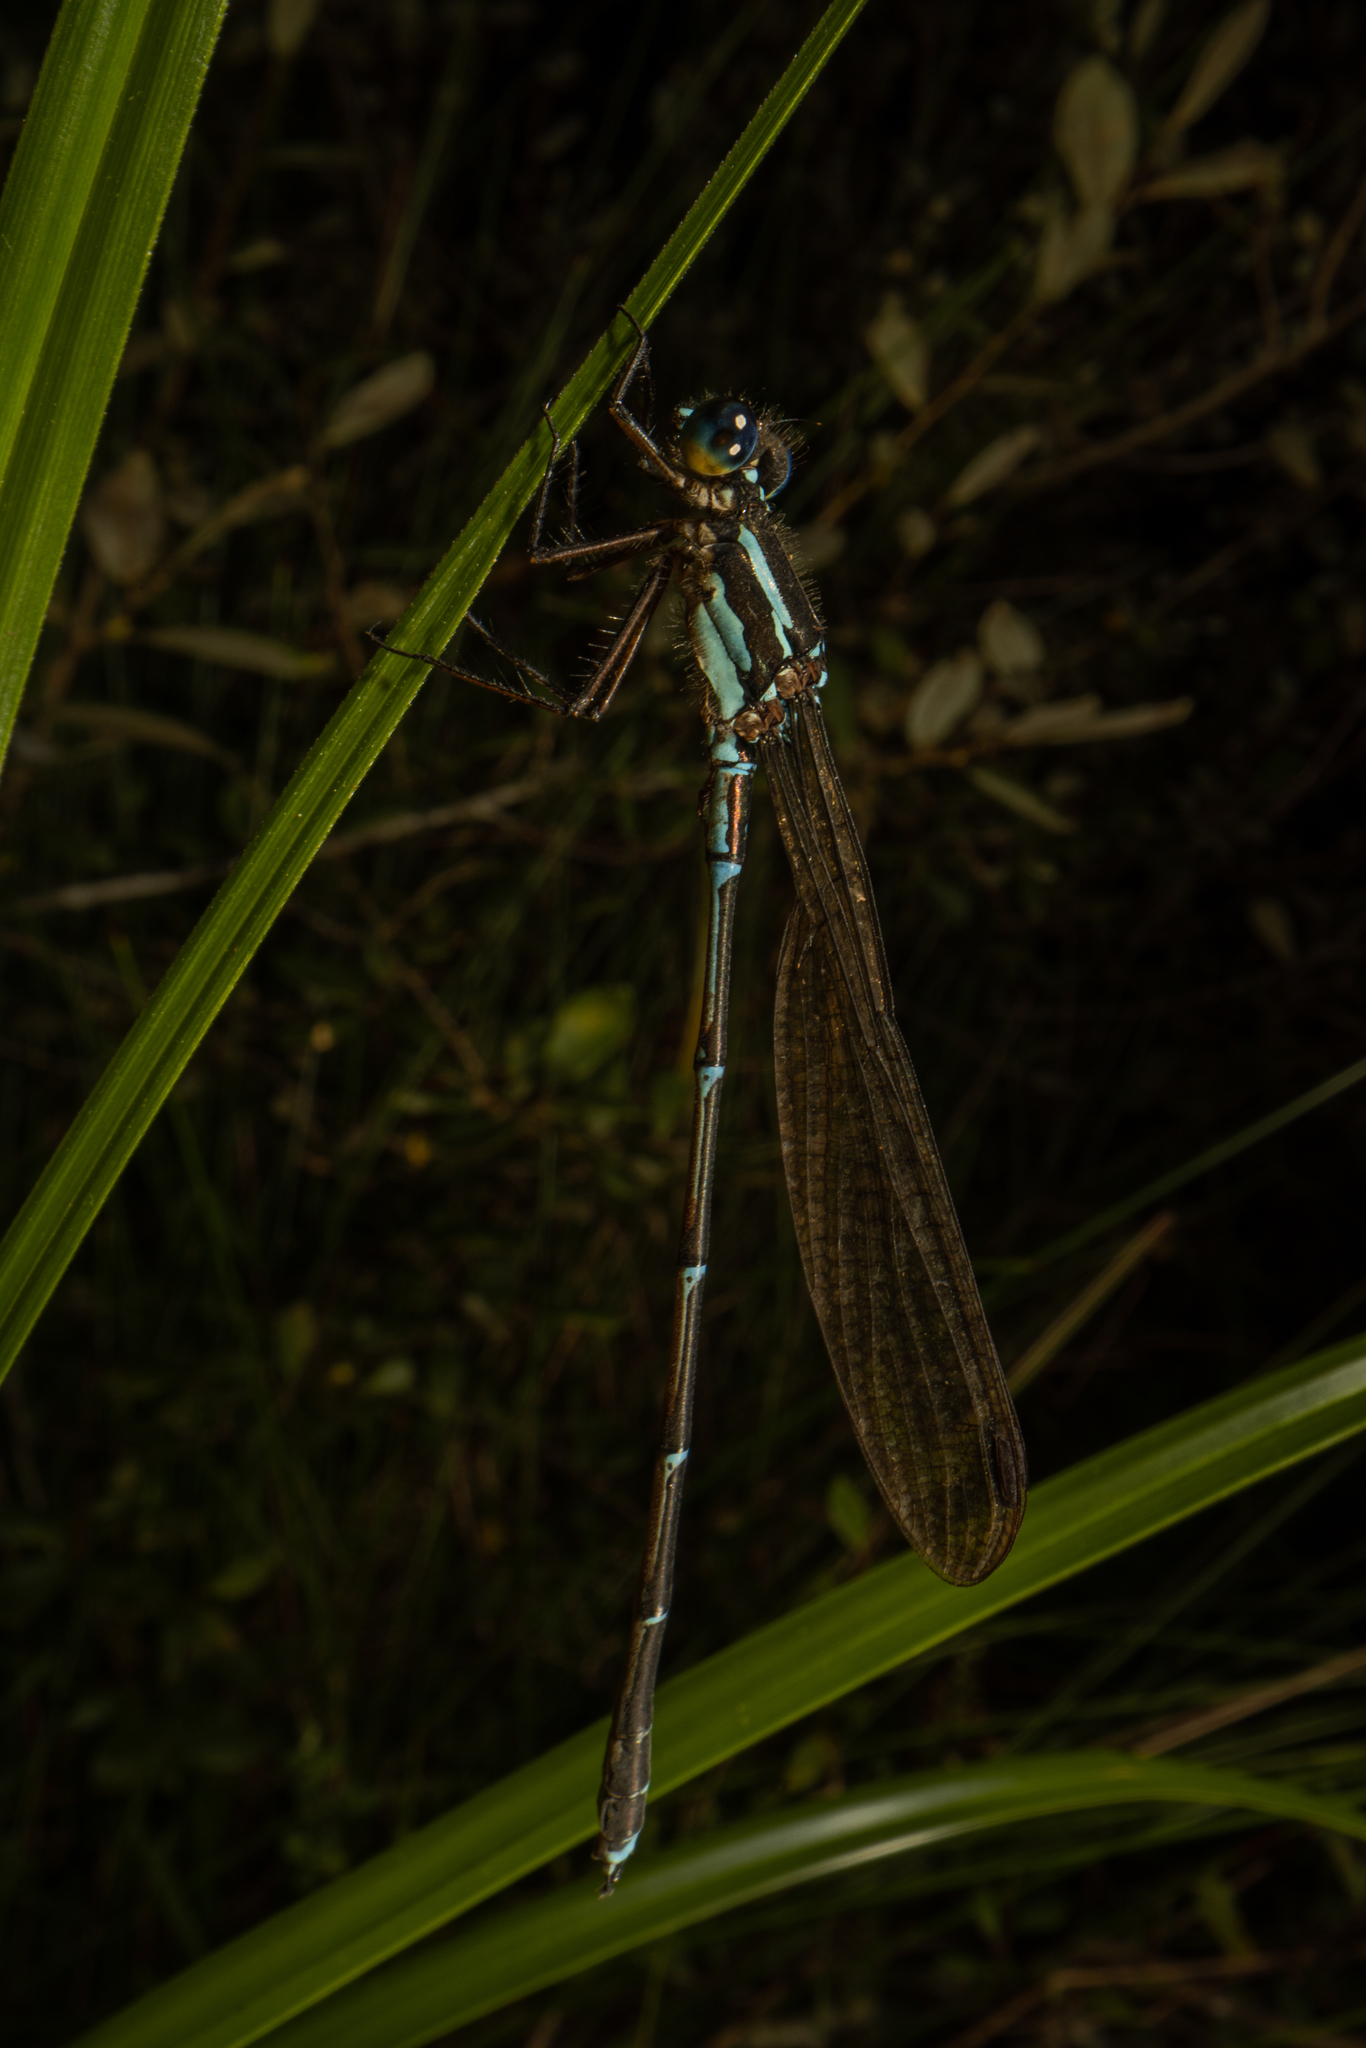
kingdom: Animalia
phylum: Arthropoda
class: Insecta
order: Odonata
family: Lestidae
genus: Austrolestes
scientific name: Austrolestes colensonis
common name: Blue damselfly
